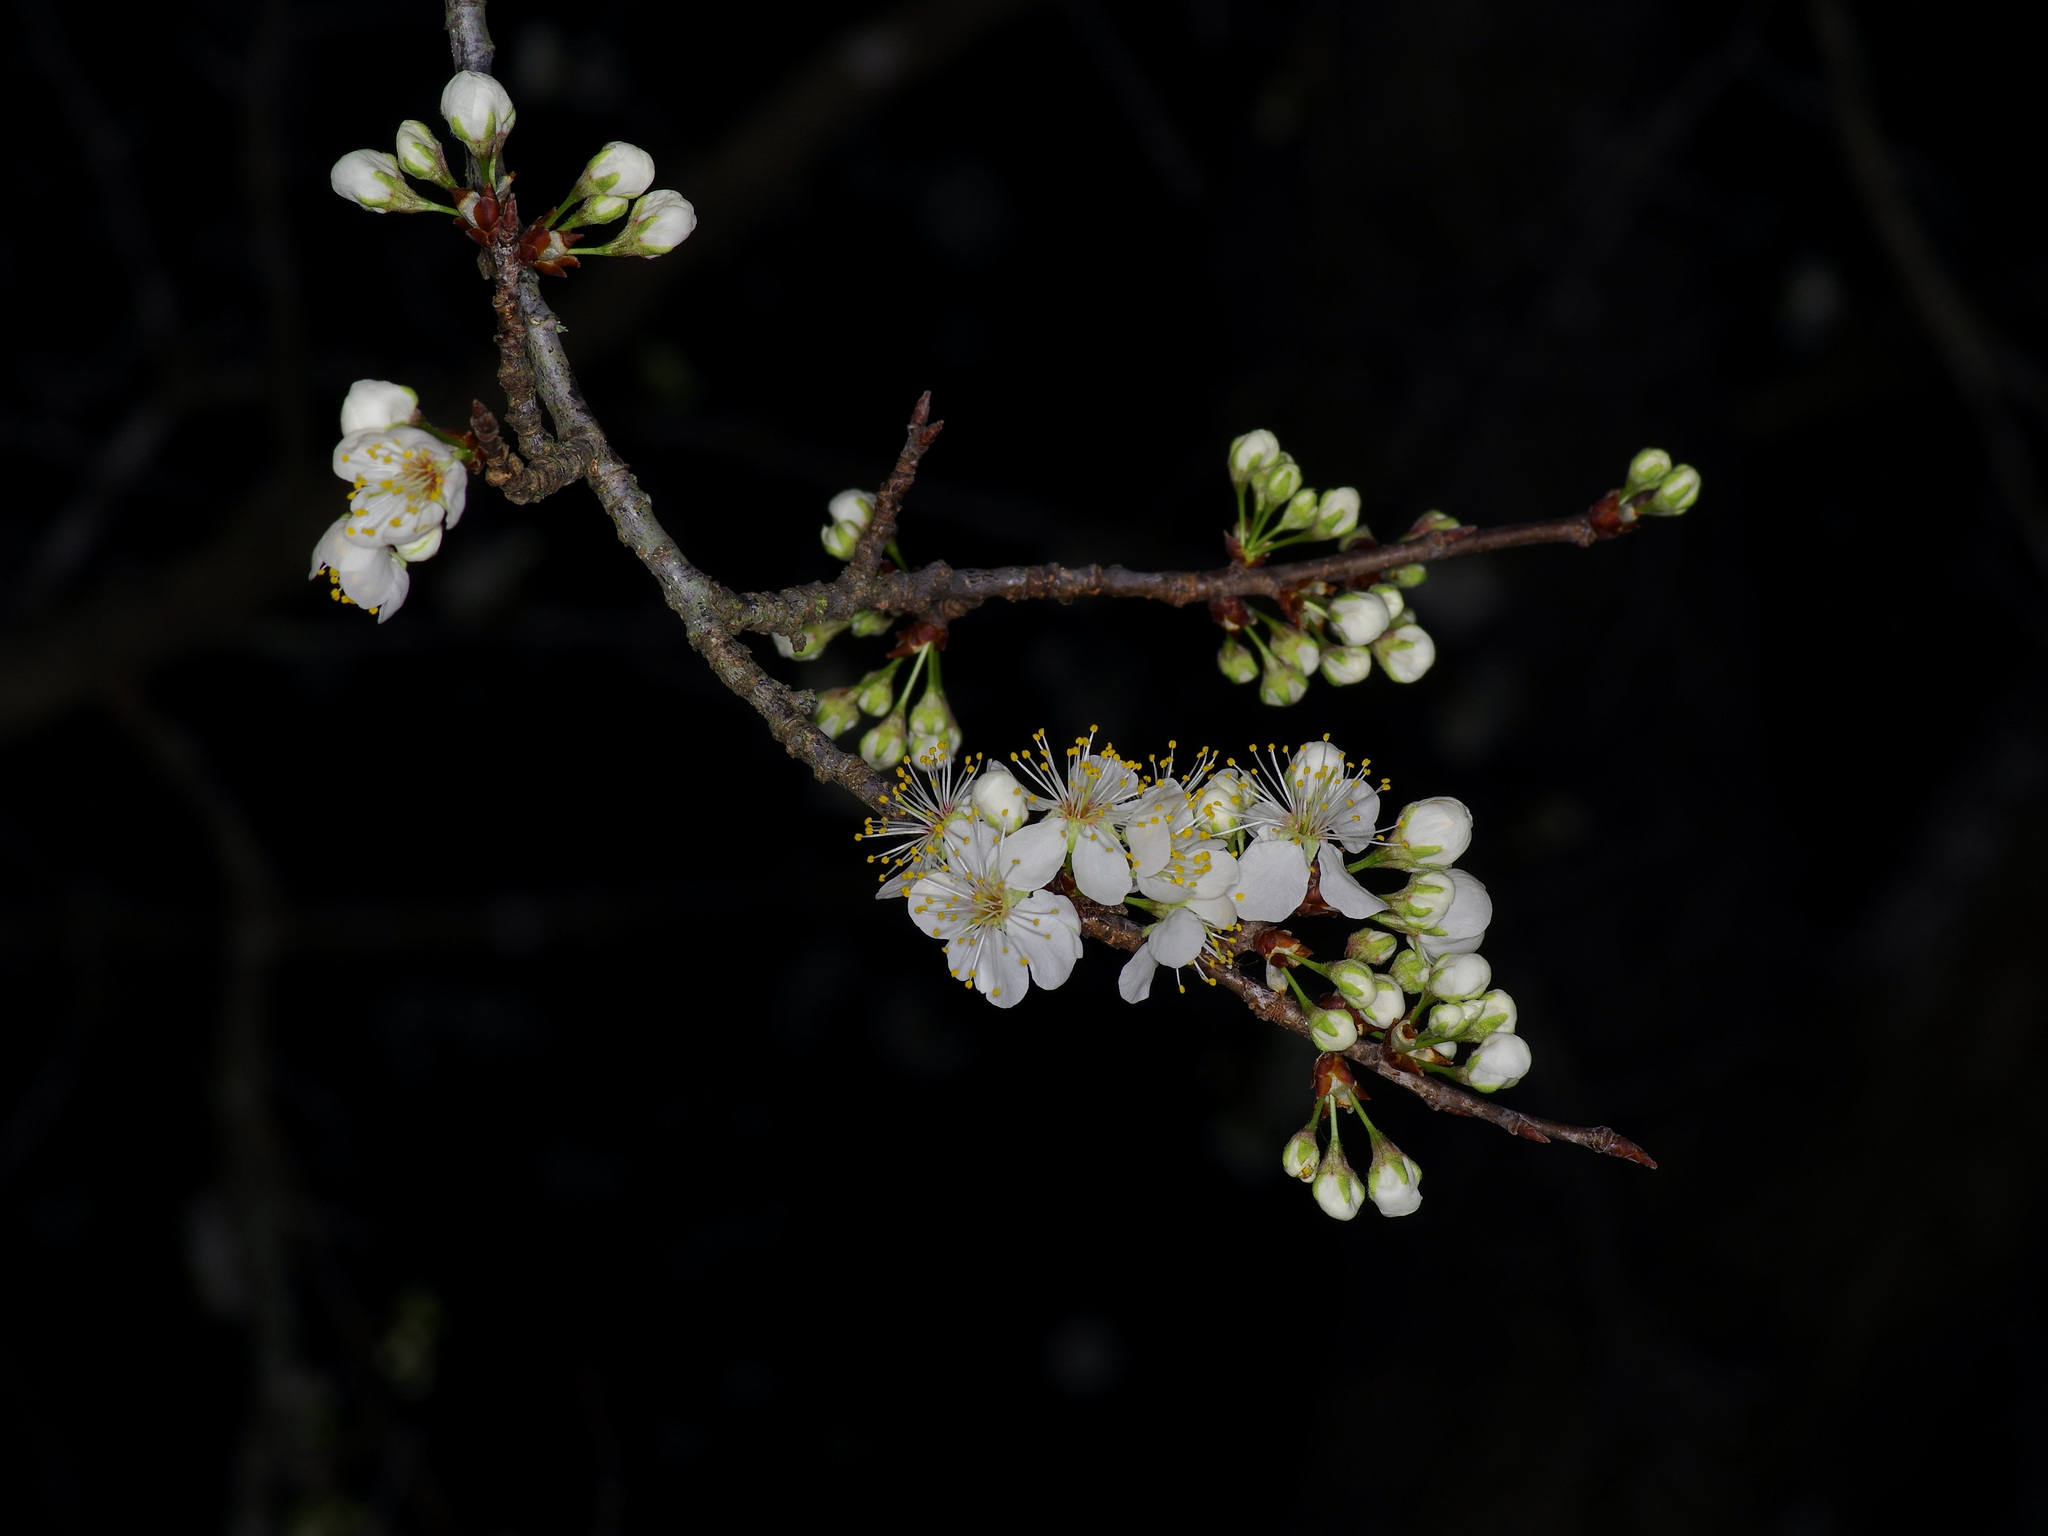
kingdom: Plantae
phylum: Tracheophyta
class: Magnoliopsida
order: Rosales
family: Rosaceae
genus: Prunus
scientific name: Prunus mexicana
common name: Mexican plum
